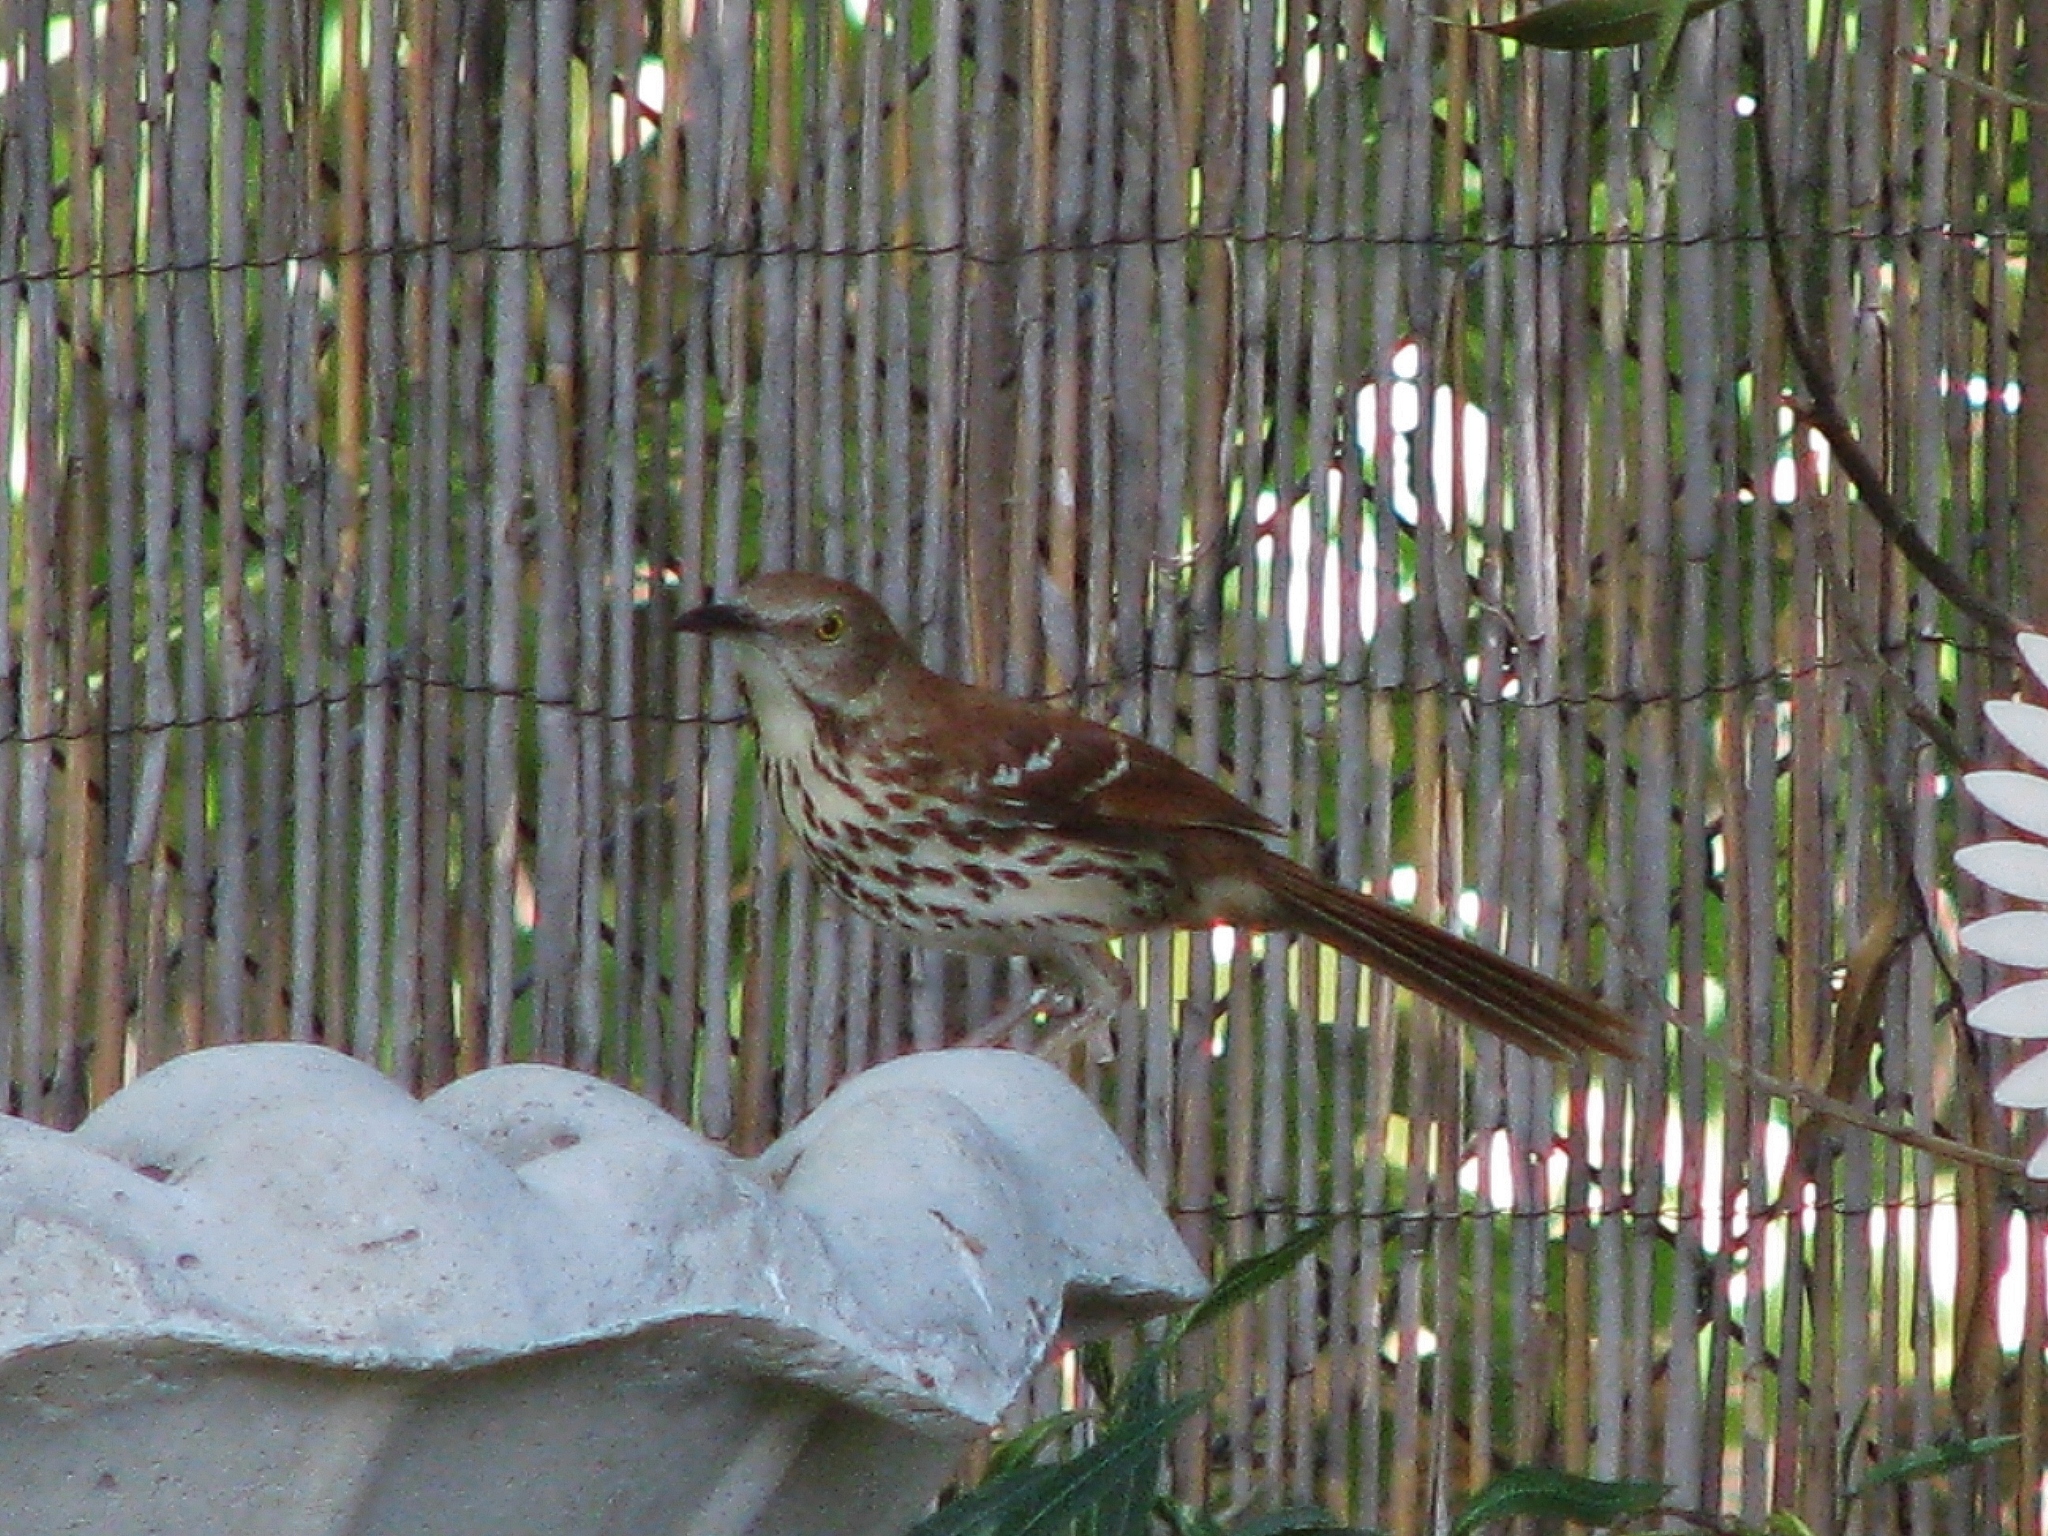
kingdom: Animalia
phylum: Chordata
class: Aves
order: Passeriformes
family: Mimidae
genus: Toxostoma
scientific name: Toxostoma rufum
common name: Brown thrasher
